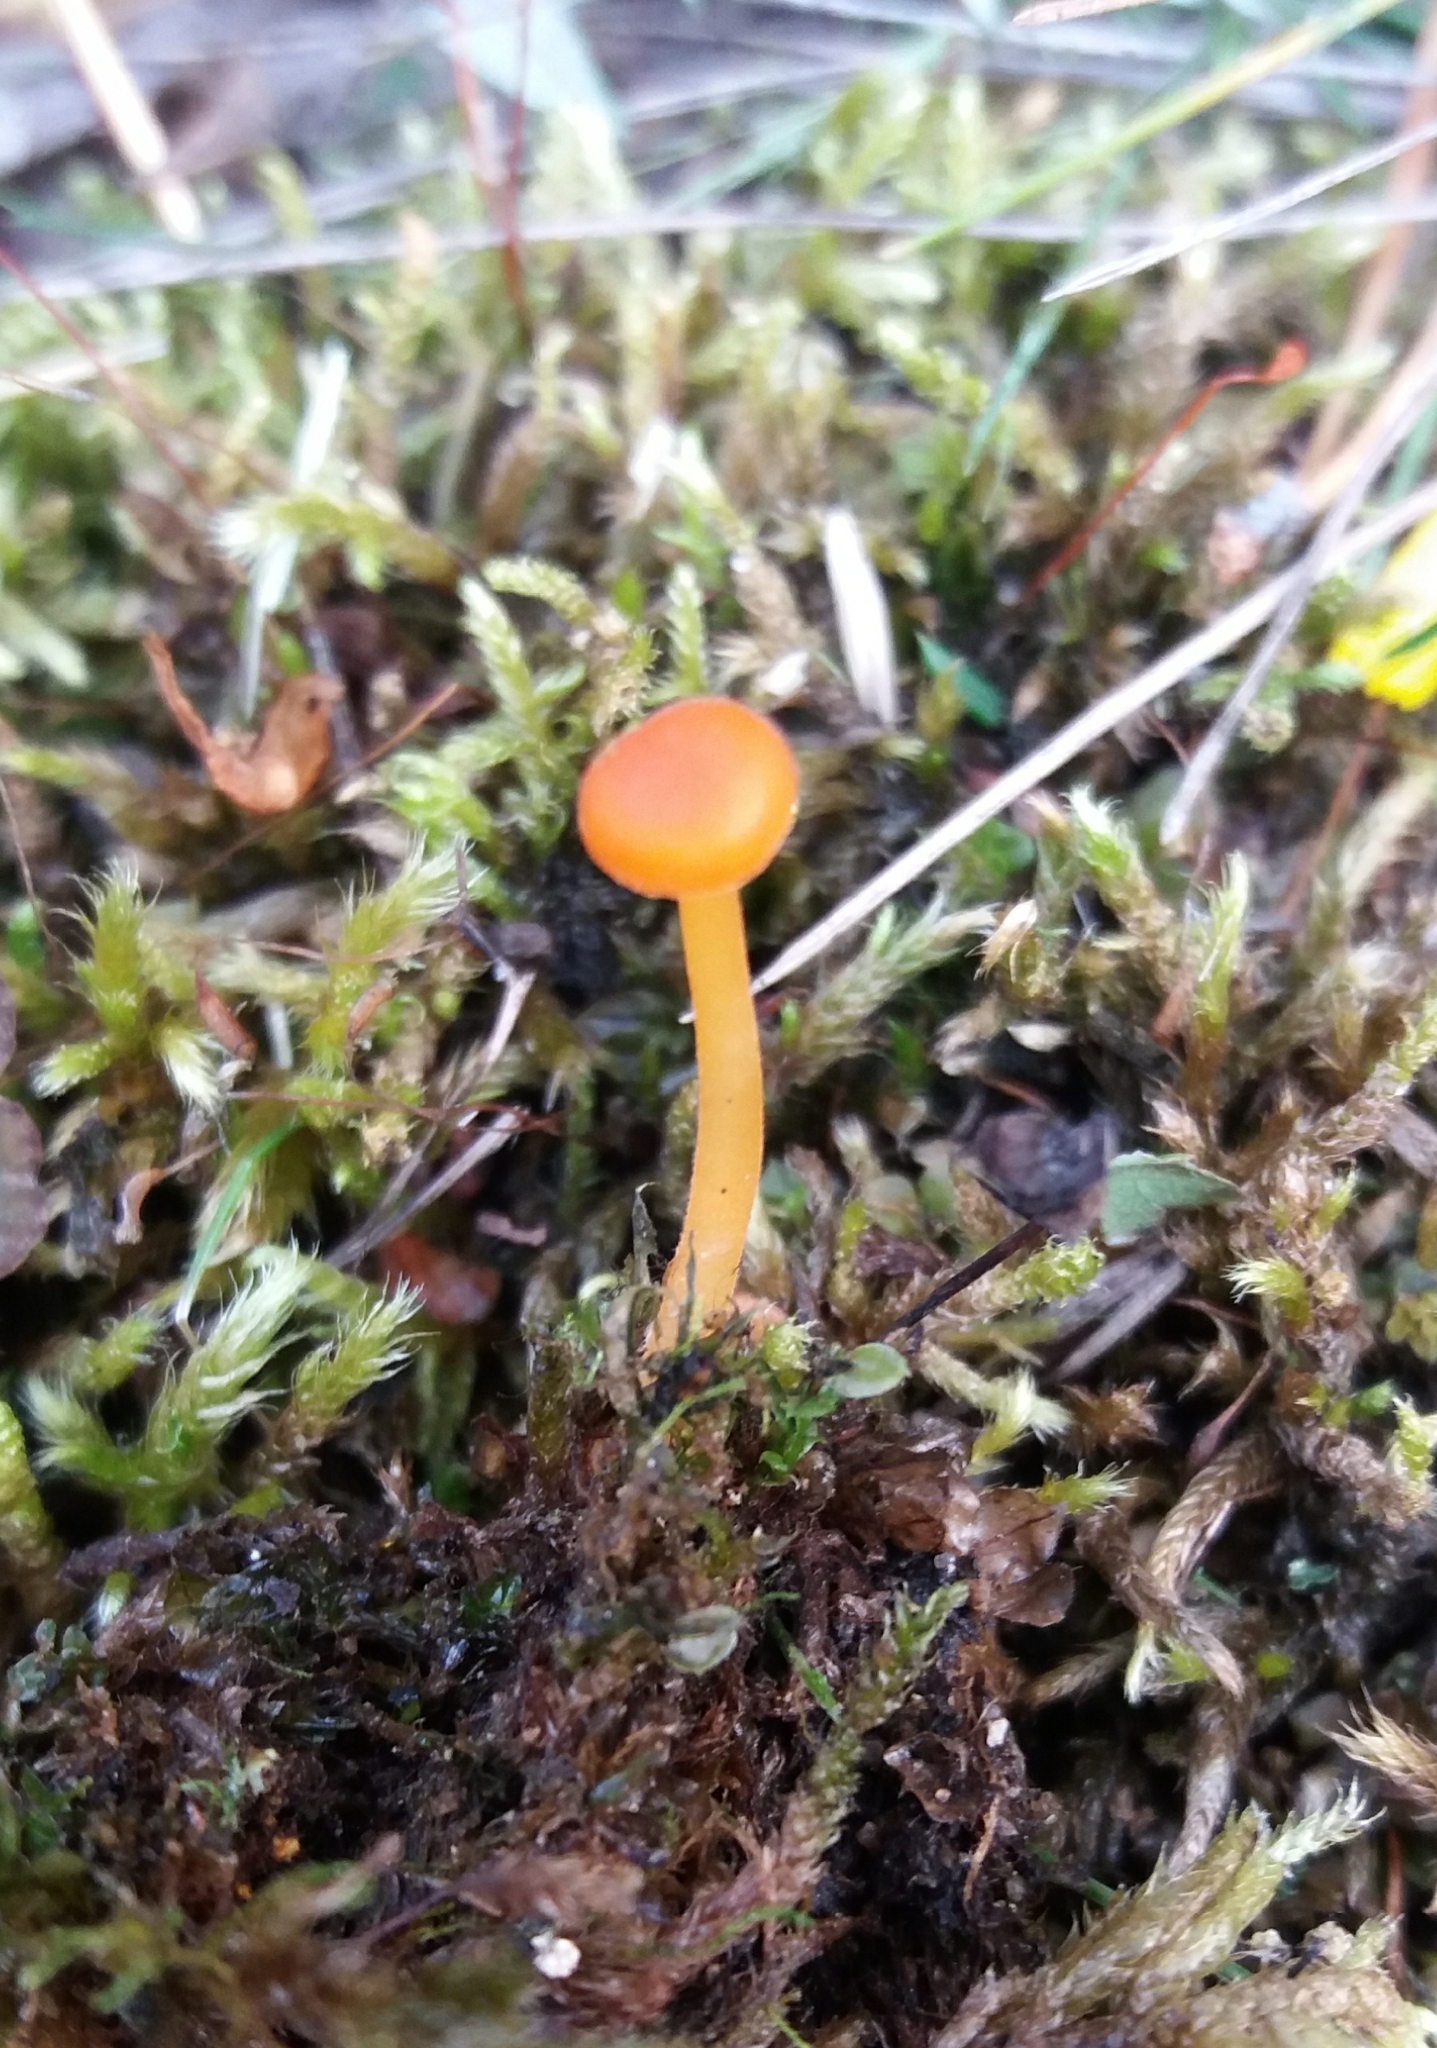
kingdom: Fungi
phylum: Basidiomycota
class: Agaricomycetes
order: Hymenochaetales
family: Rickenellaceae
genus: Rickenella
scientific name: Rickenella fibula
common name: Orange mosscap
